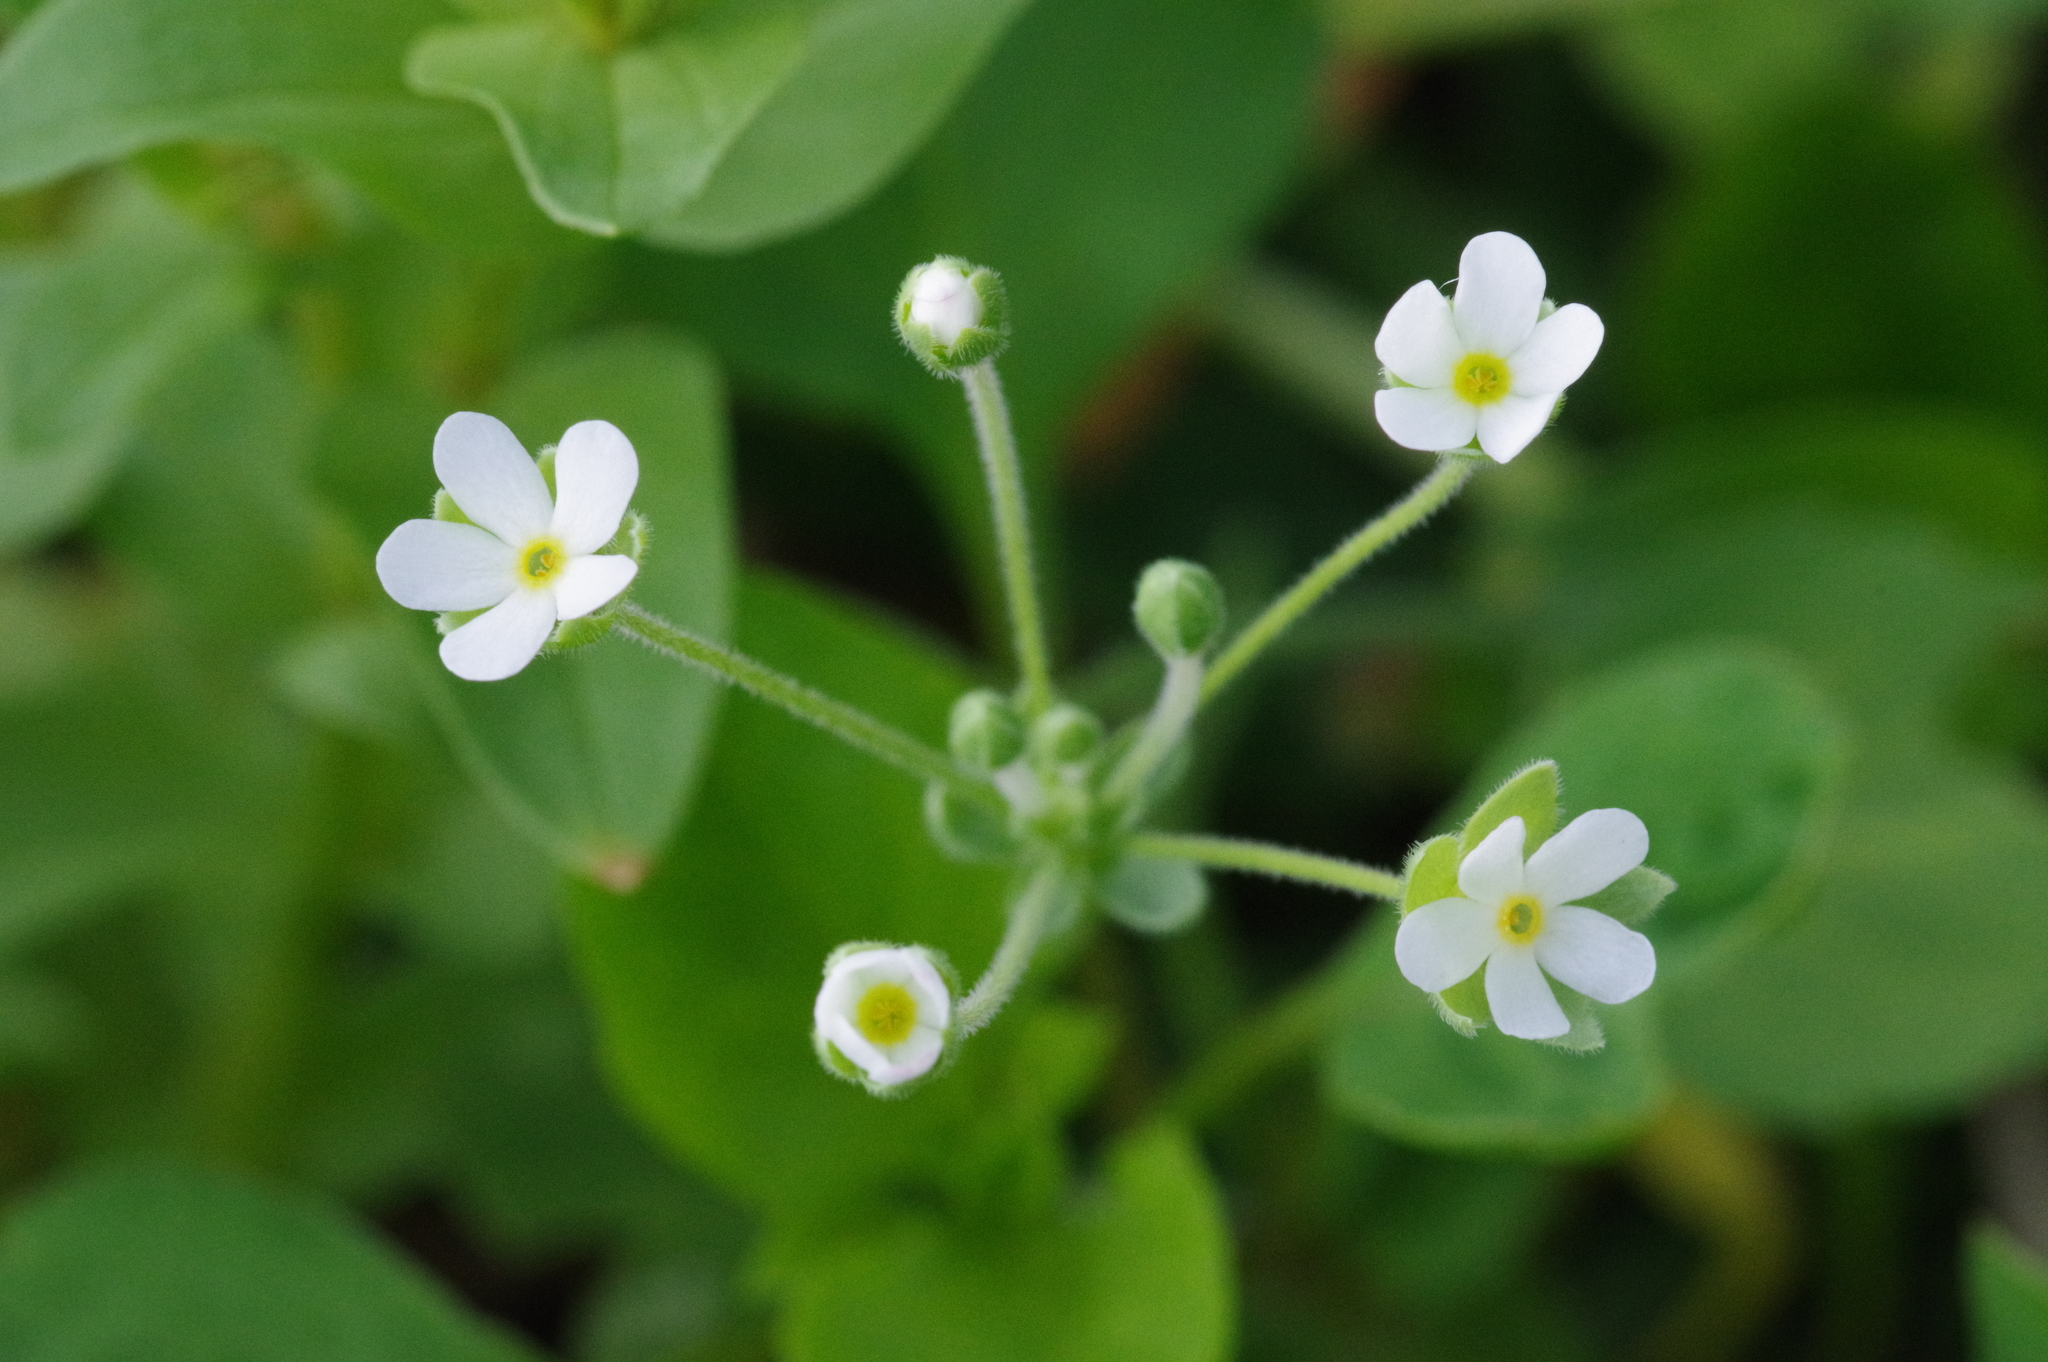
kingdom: Plantae
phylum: Tracheophyta
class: Magnoliopsida
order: Ericales
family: Primulaceae
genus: Androsace
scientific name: Androsace umbellata
